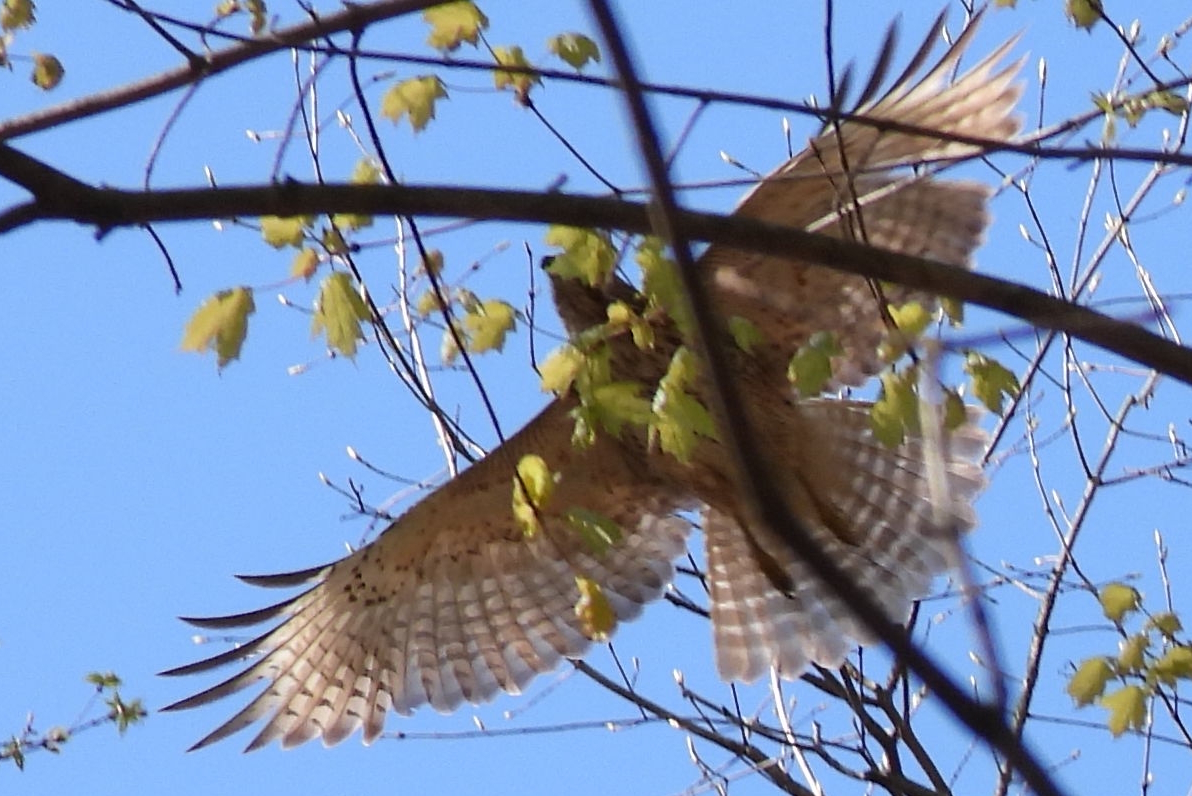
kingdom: Animalia
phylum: Chordata
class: Aves
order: Accipitriformes
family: Accipitridae
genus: Buteo
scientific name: Buteo lineatus
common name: Red-shouldered hawk
